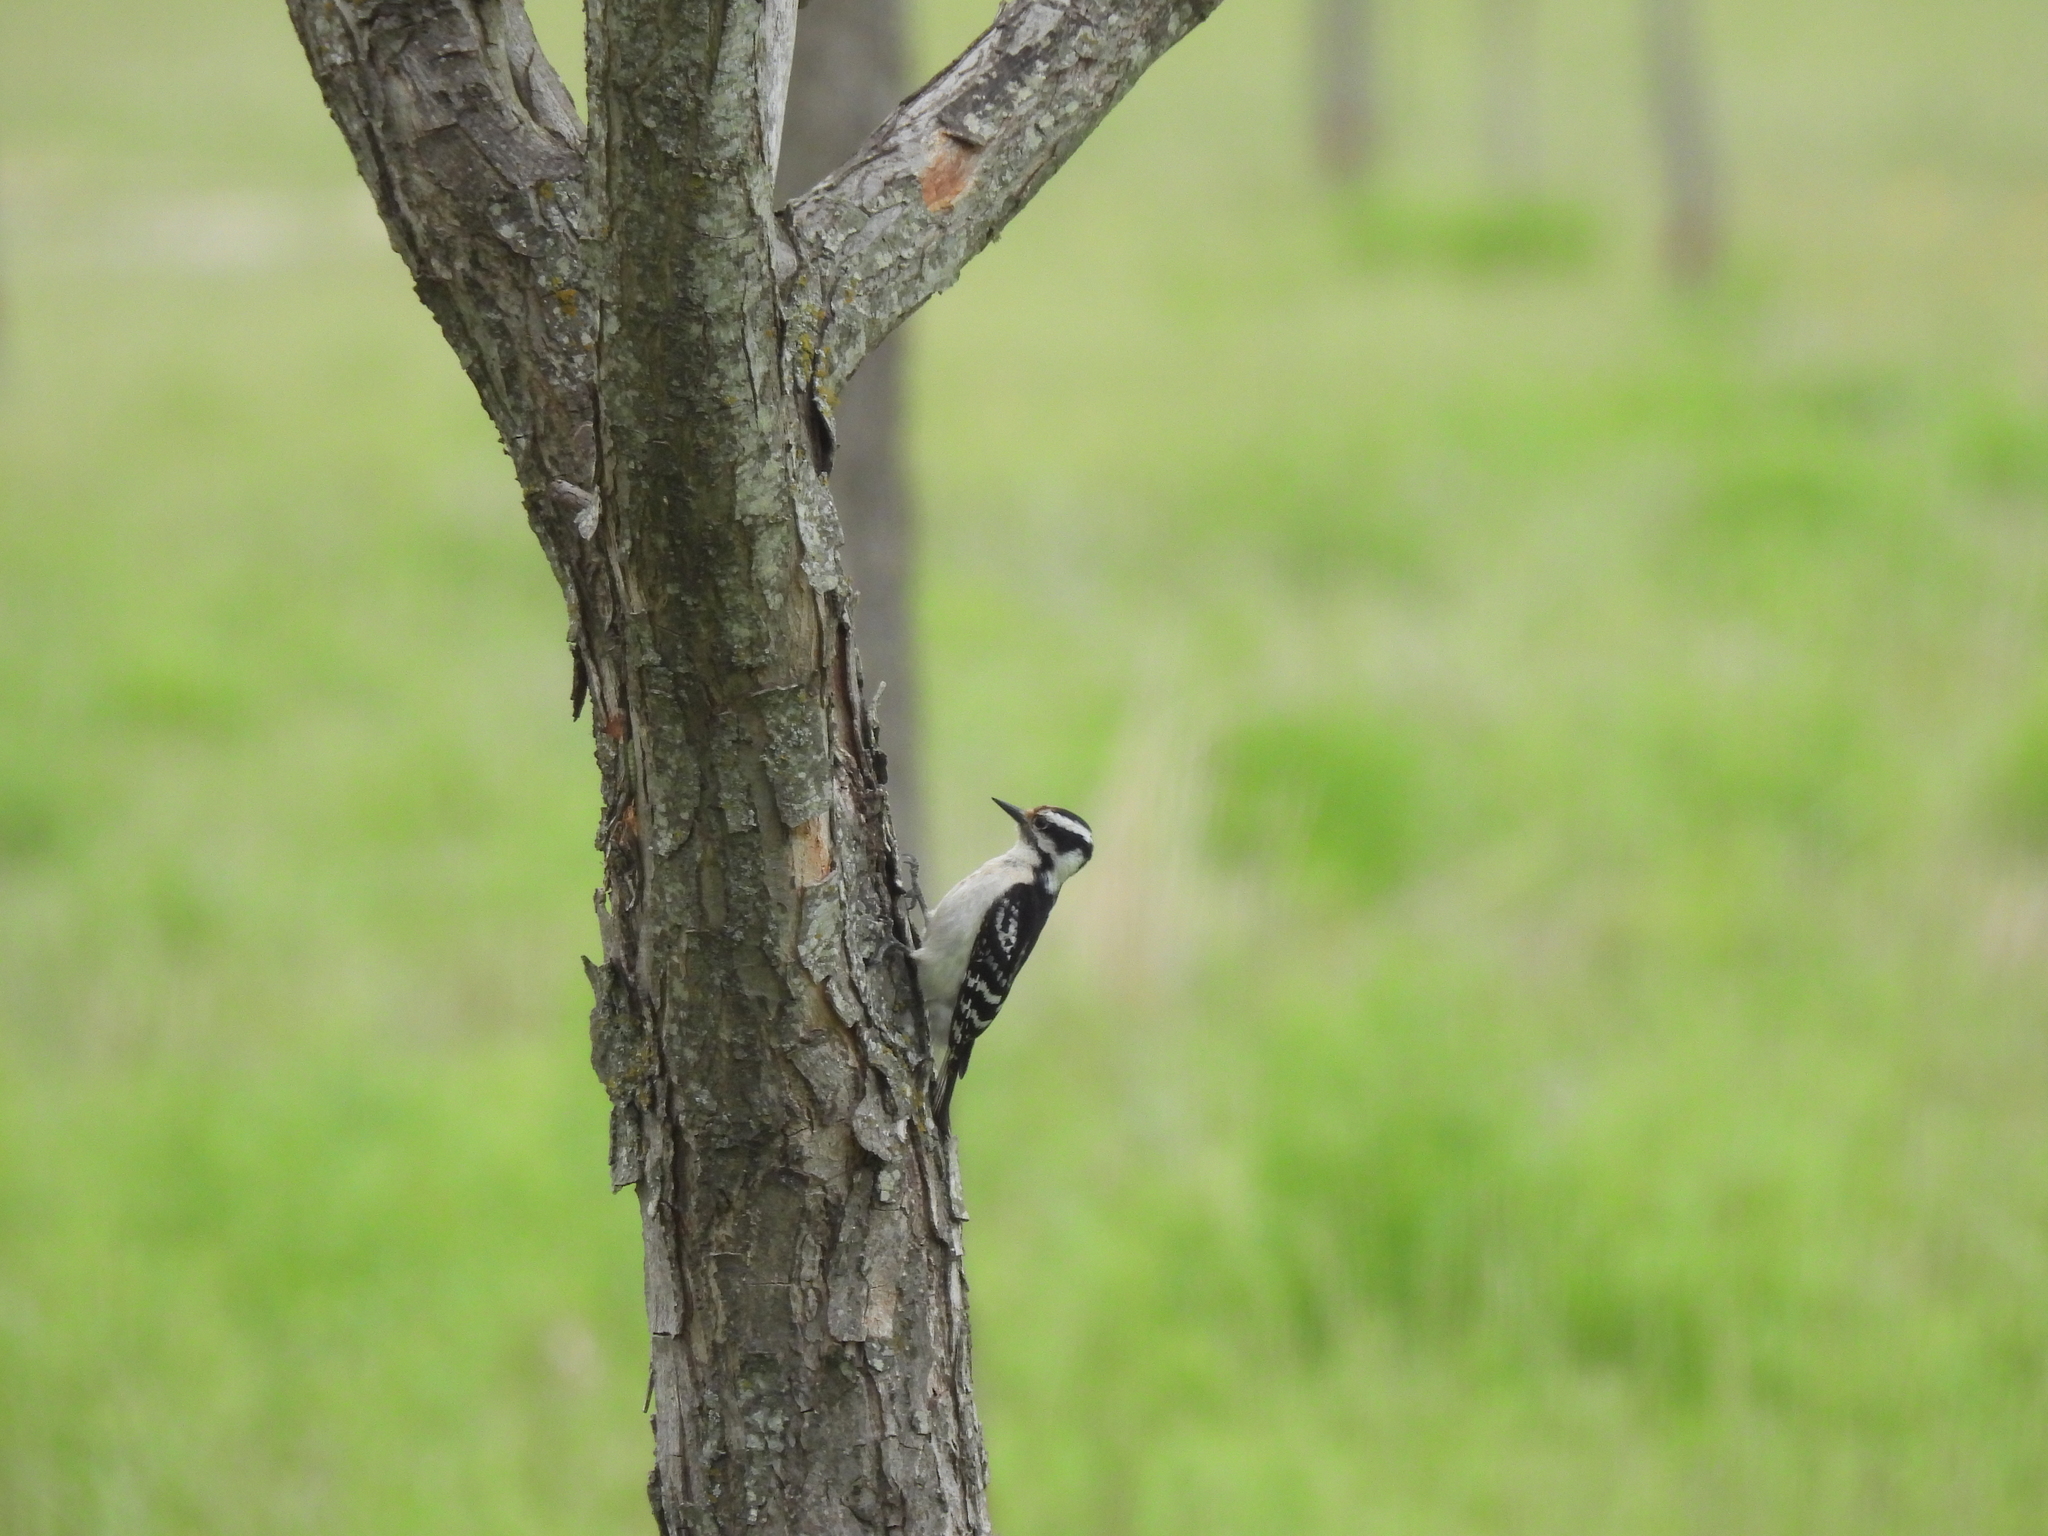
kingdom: Animalia
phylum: Chordata
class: Aves
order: Piciformes
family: Picidae
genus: Dryobates
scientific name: Dryobates pubescens
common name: Downy woodpecker
